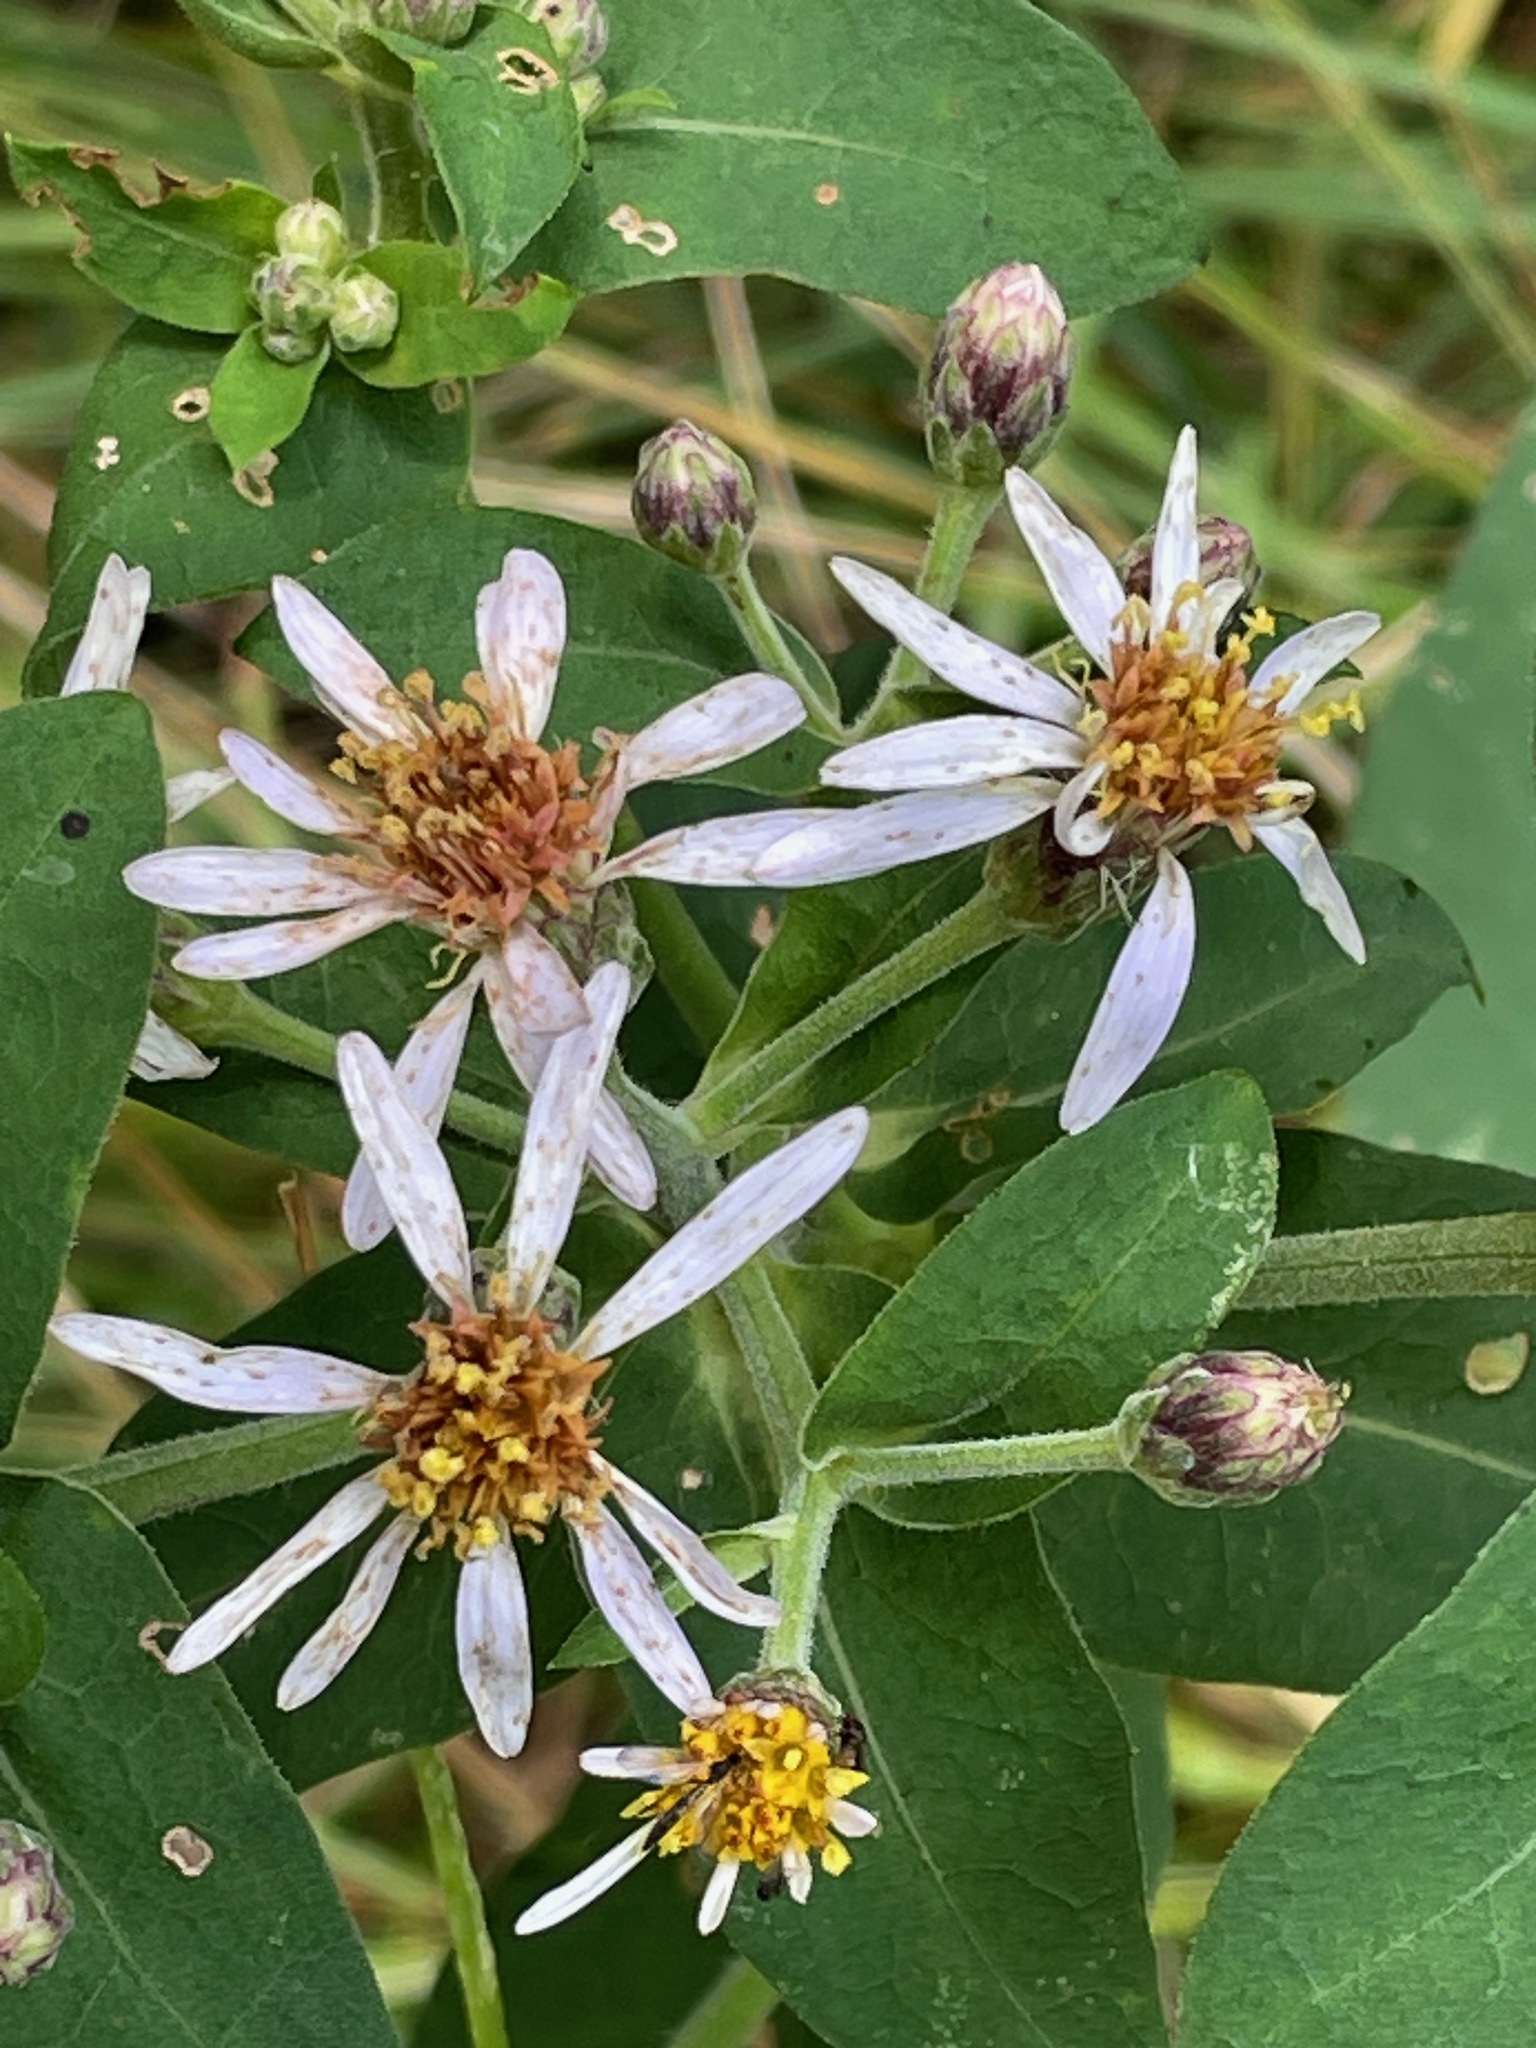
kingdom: Plantae
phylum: Tracheophyta
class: Magnoliopsida
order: Asterales
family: Asteraceae
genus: Eurybia
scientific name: Eurybia macrophylla
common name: Big-leaved aster
